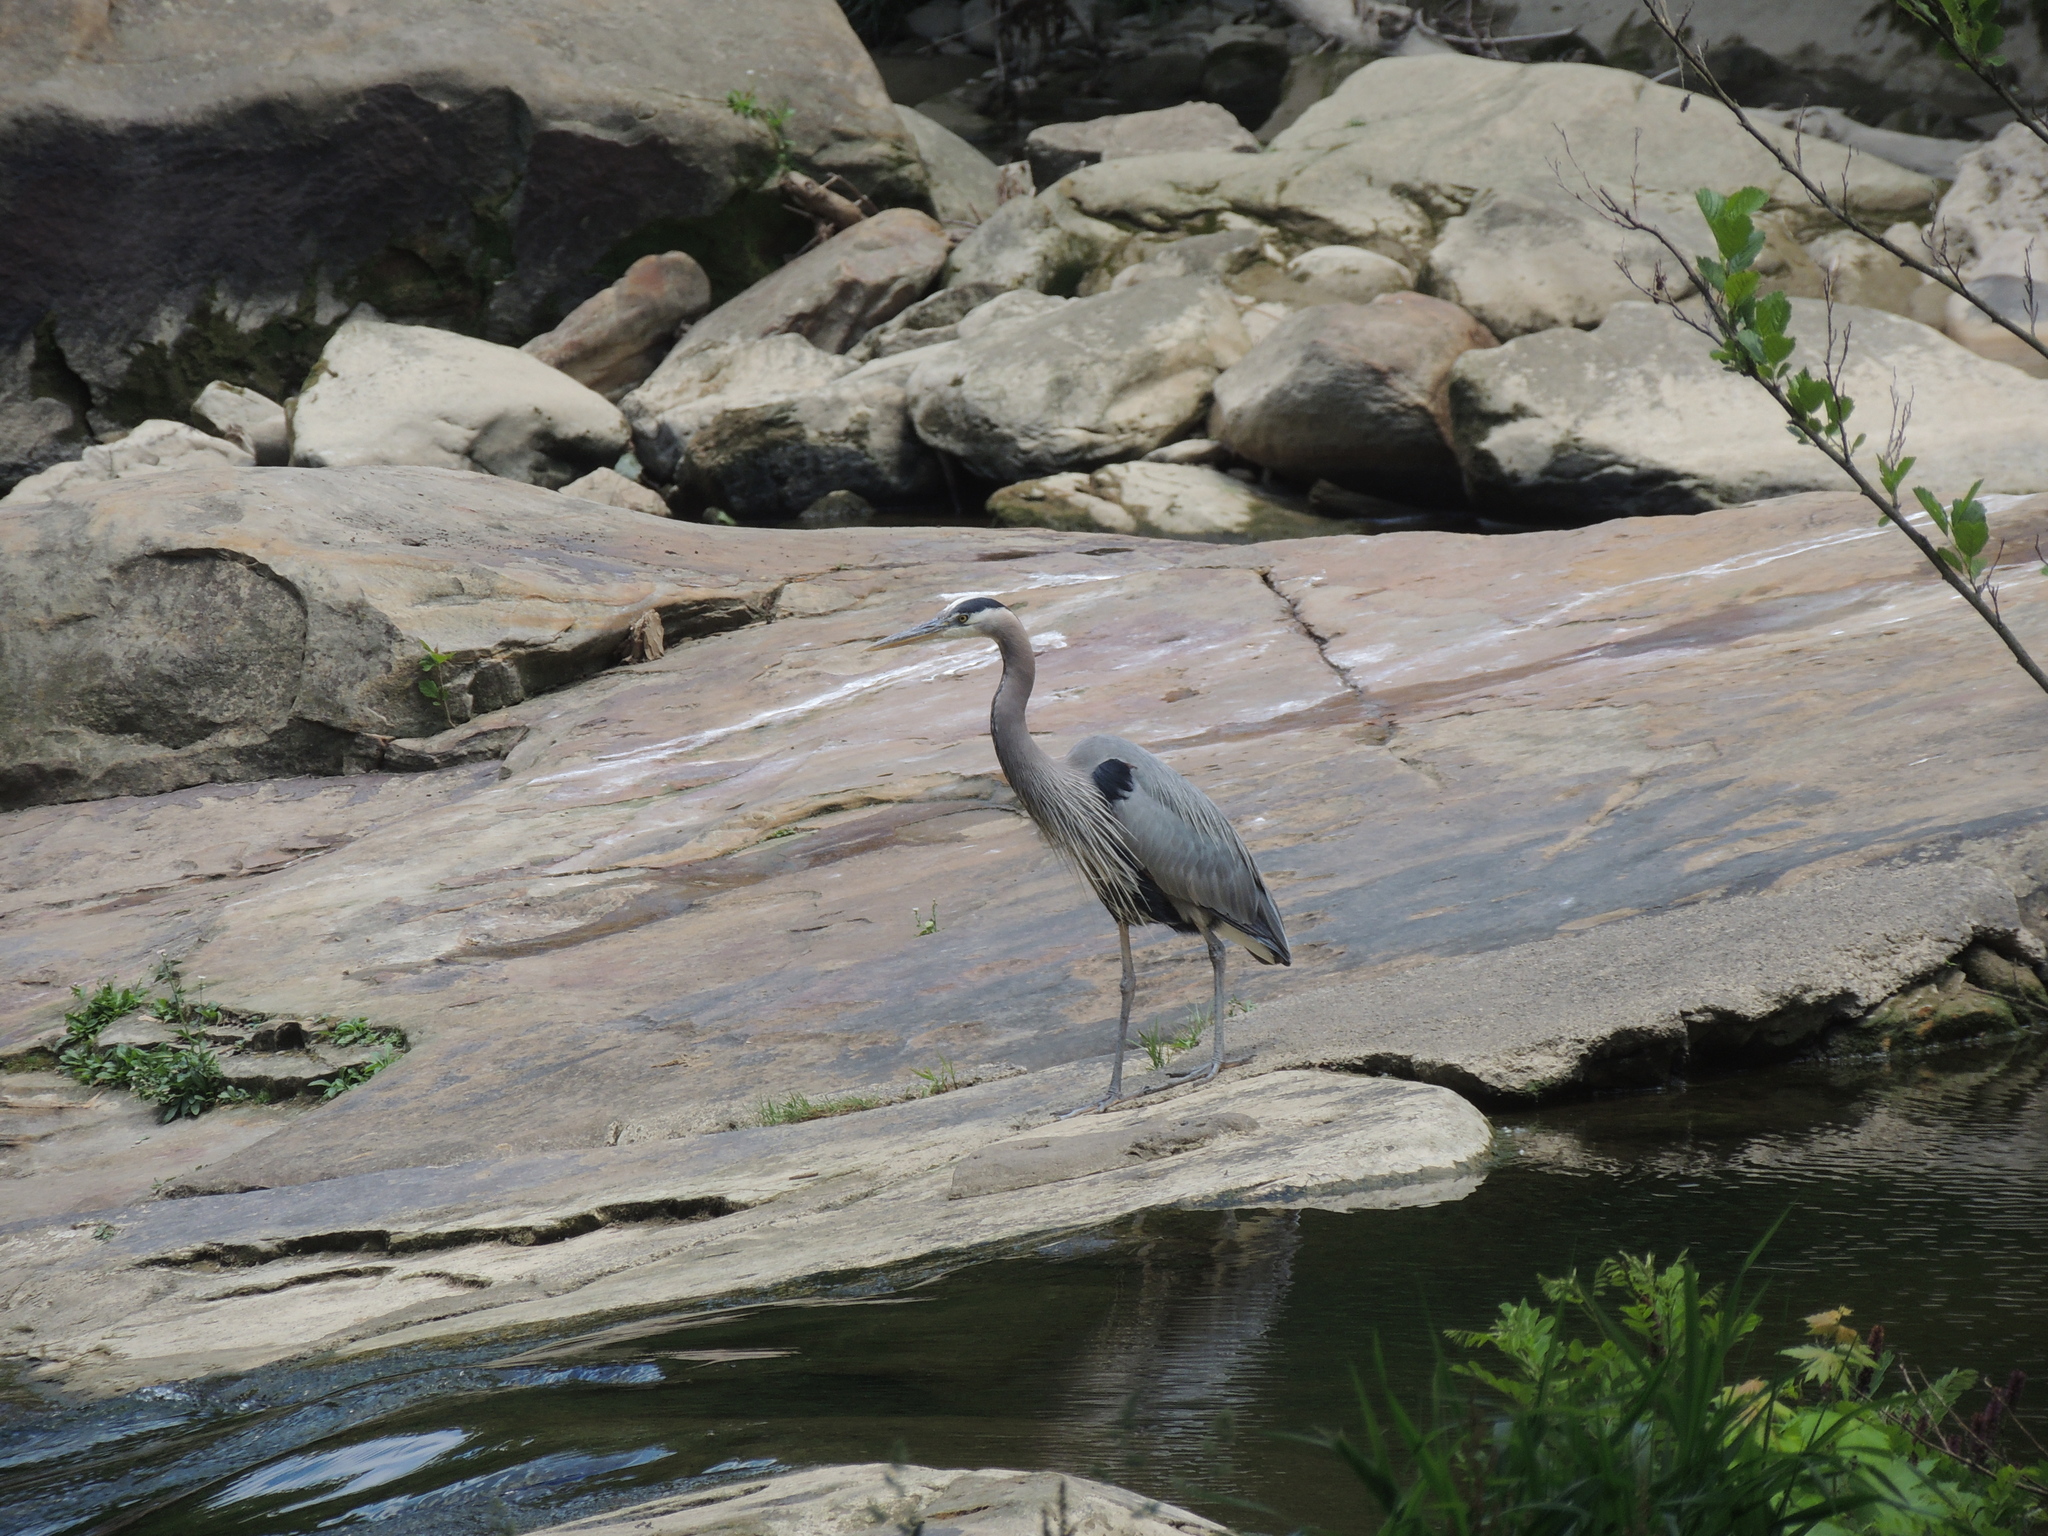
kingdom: Animalia
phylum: Chordata
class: Aves
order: Pelecaniformes
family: Ardeidae
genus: Ardea
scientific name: Ardea herodias
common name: Great blue heron
